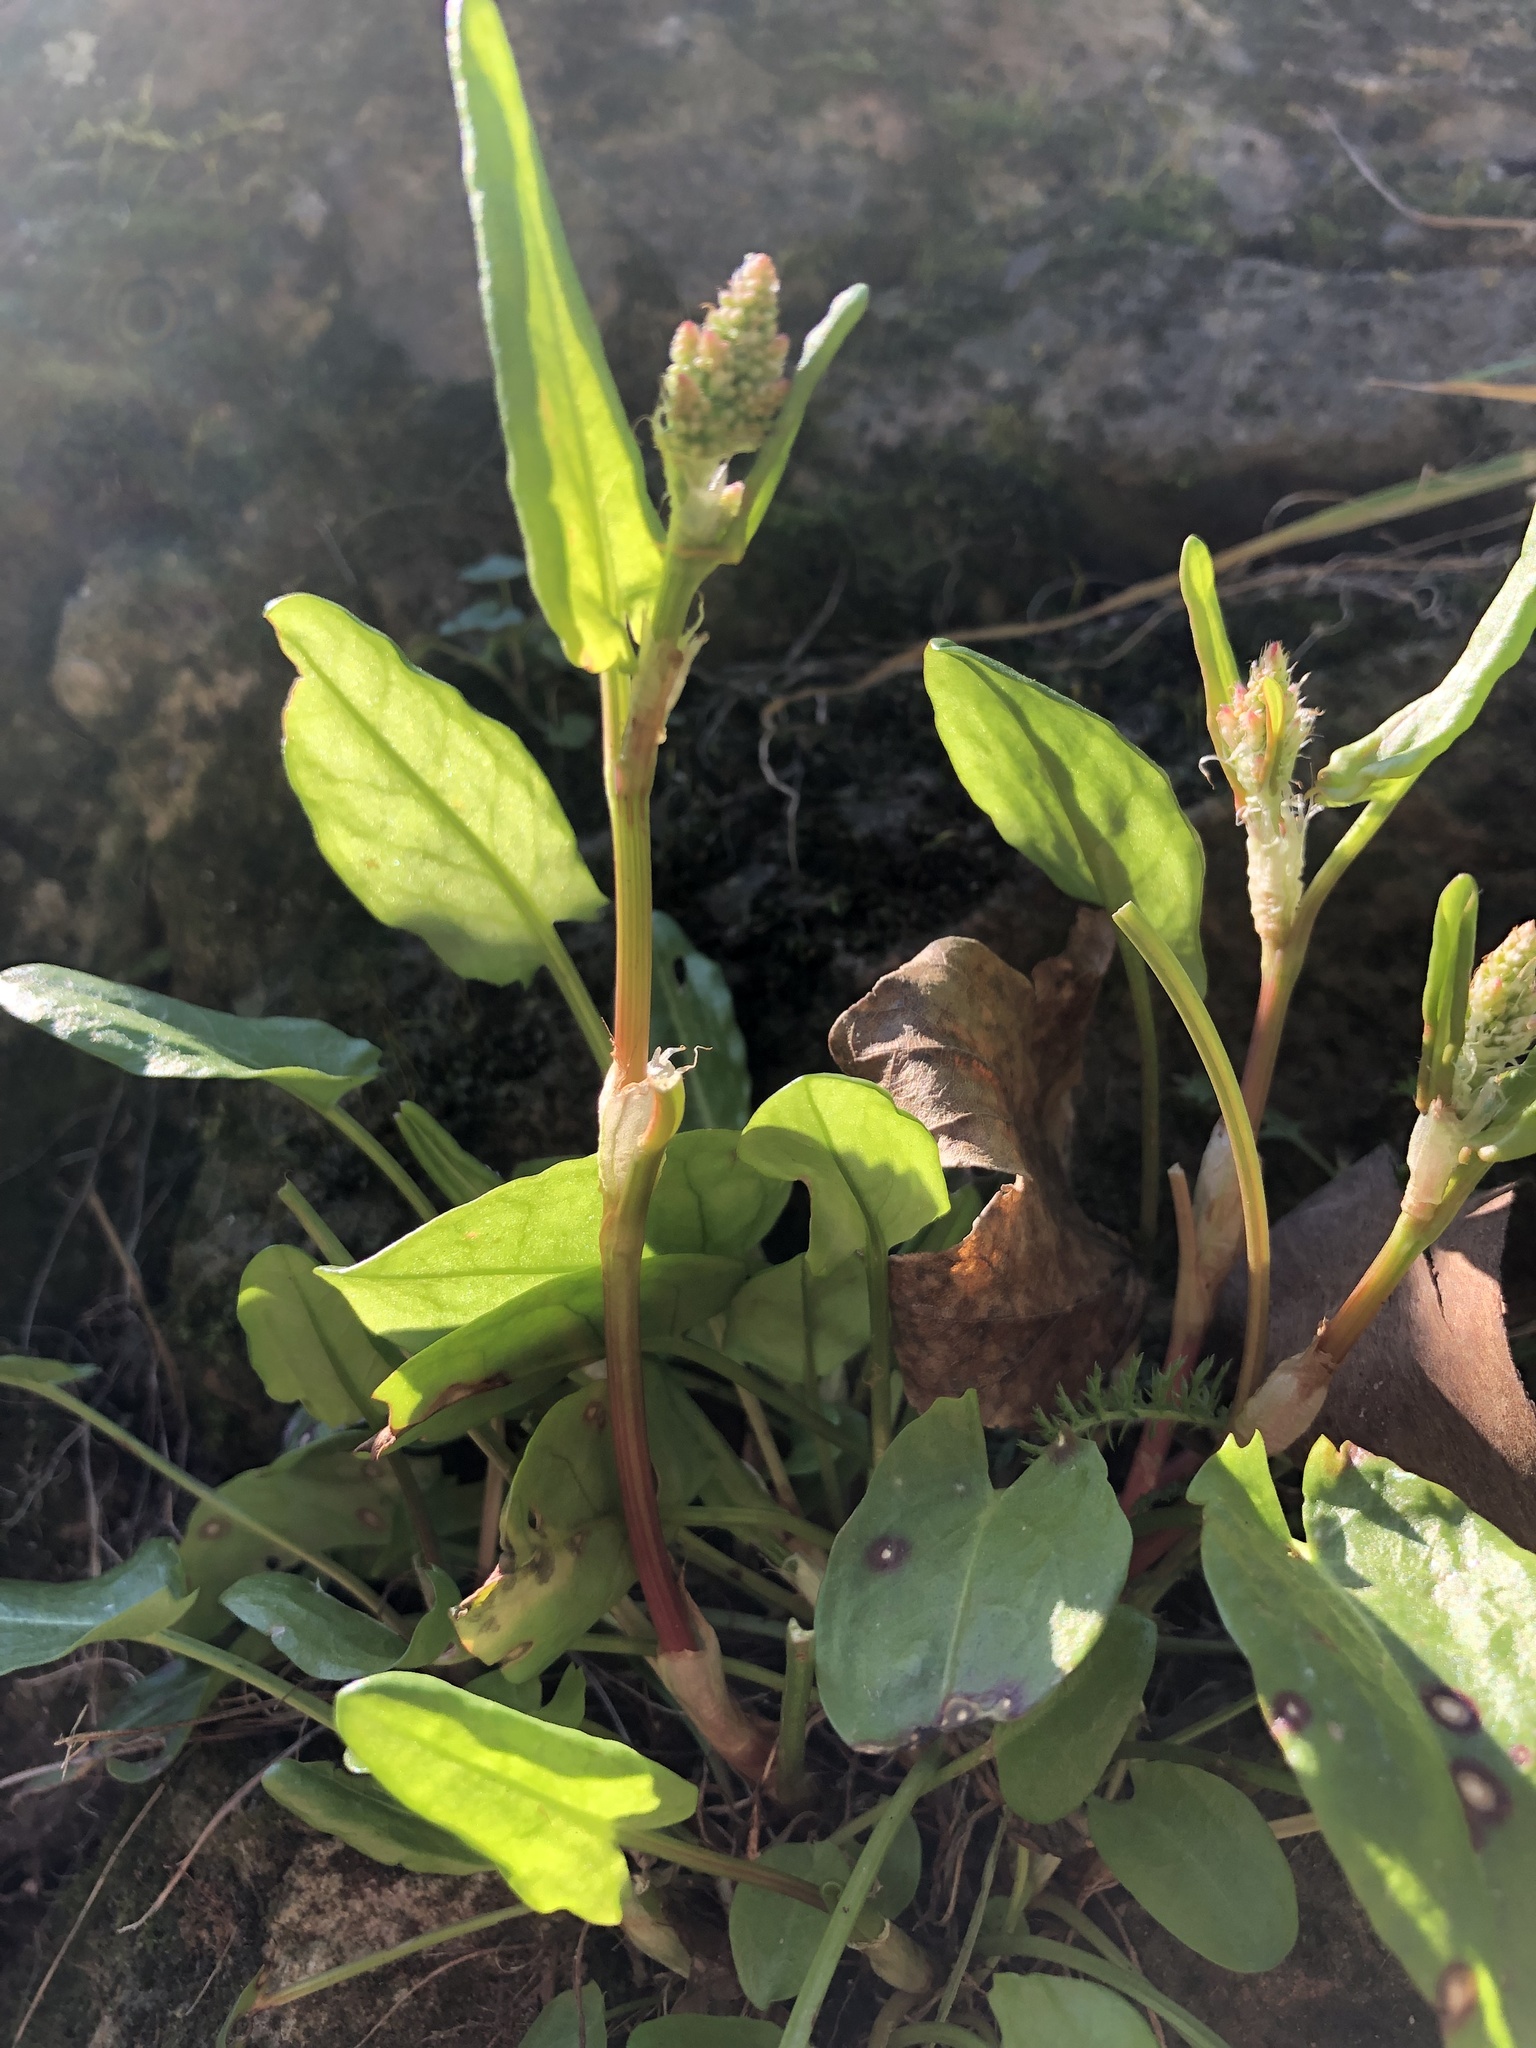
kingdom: Plantae
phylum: Tracheophyta
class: Magnoliopsida
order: Caryophyllales
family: Polygonaceae
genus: Rumex
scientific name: Rumex acetosa
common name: Garden sorrel
